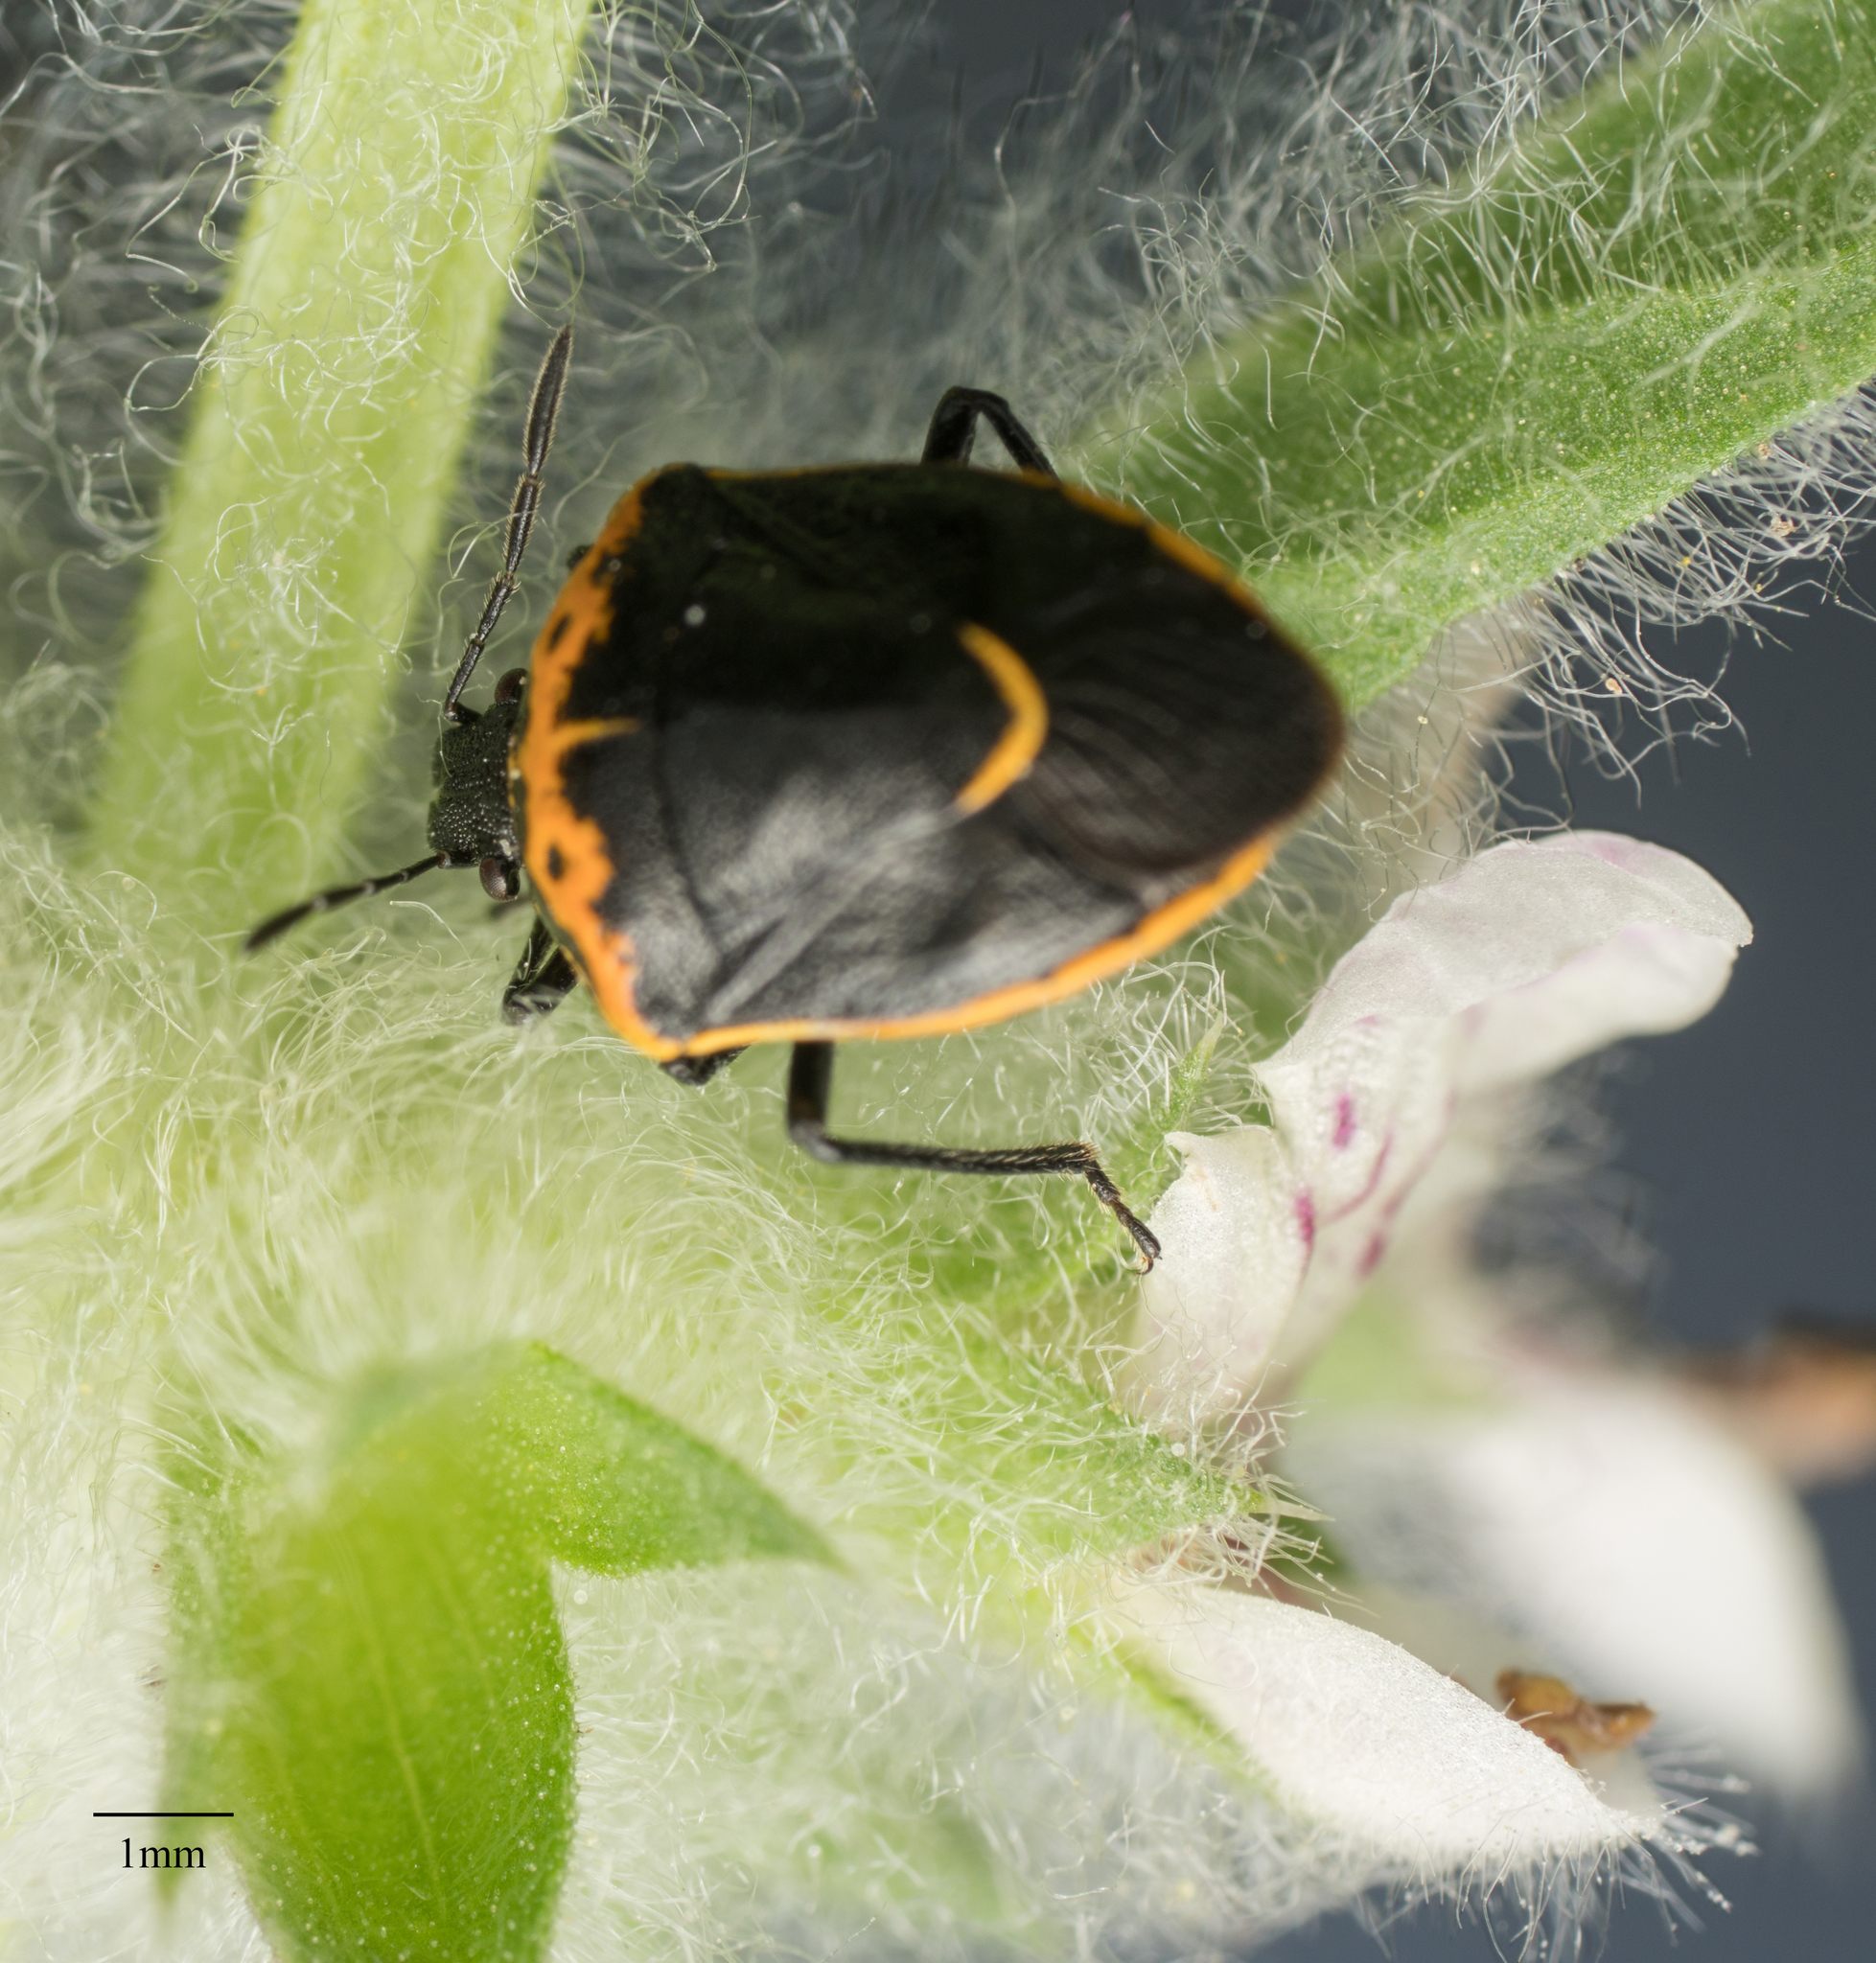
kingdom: Animalia
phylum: Arthropoda
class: Insecta
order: Hemiptera
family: Pentatomidae
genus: Cosmopepla
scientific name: Cosmopepla conspicillaris
